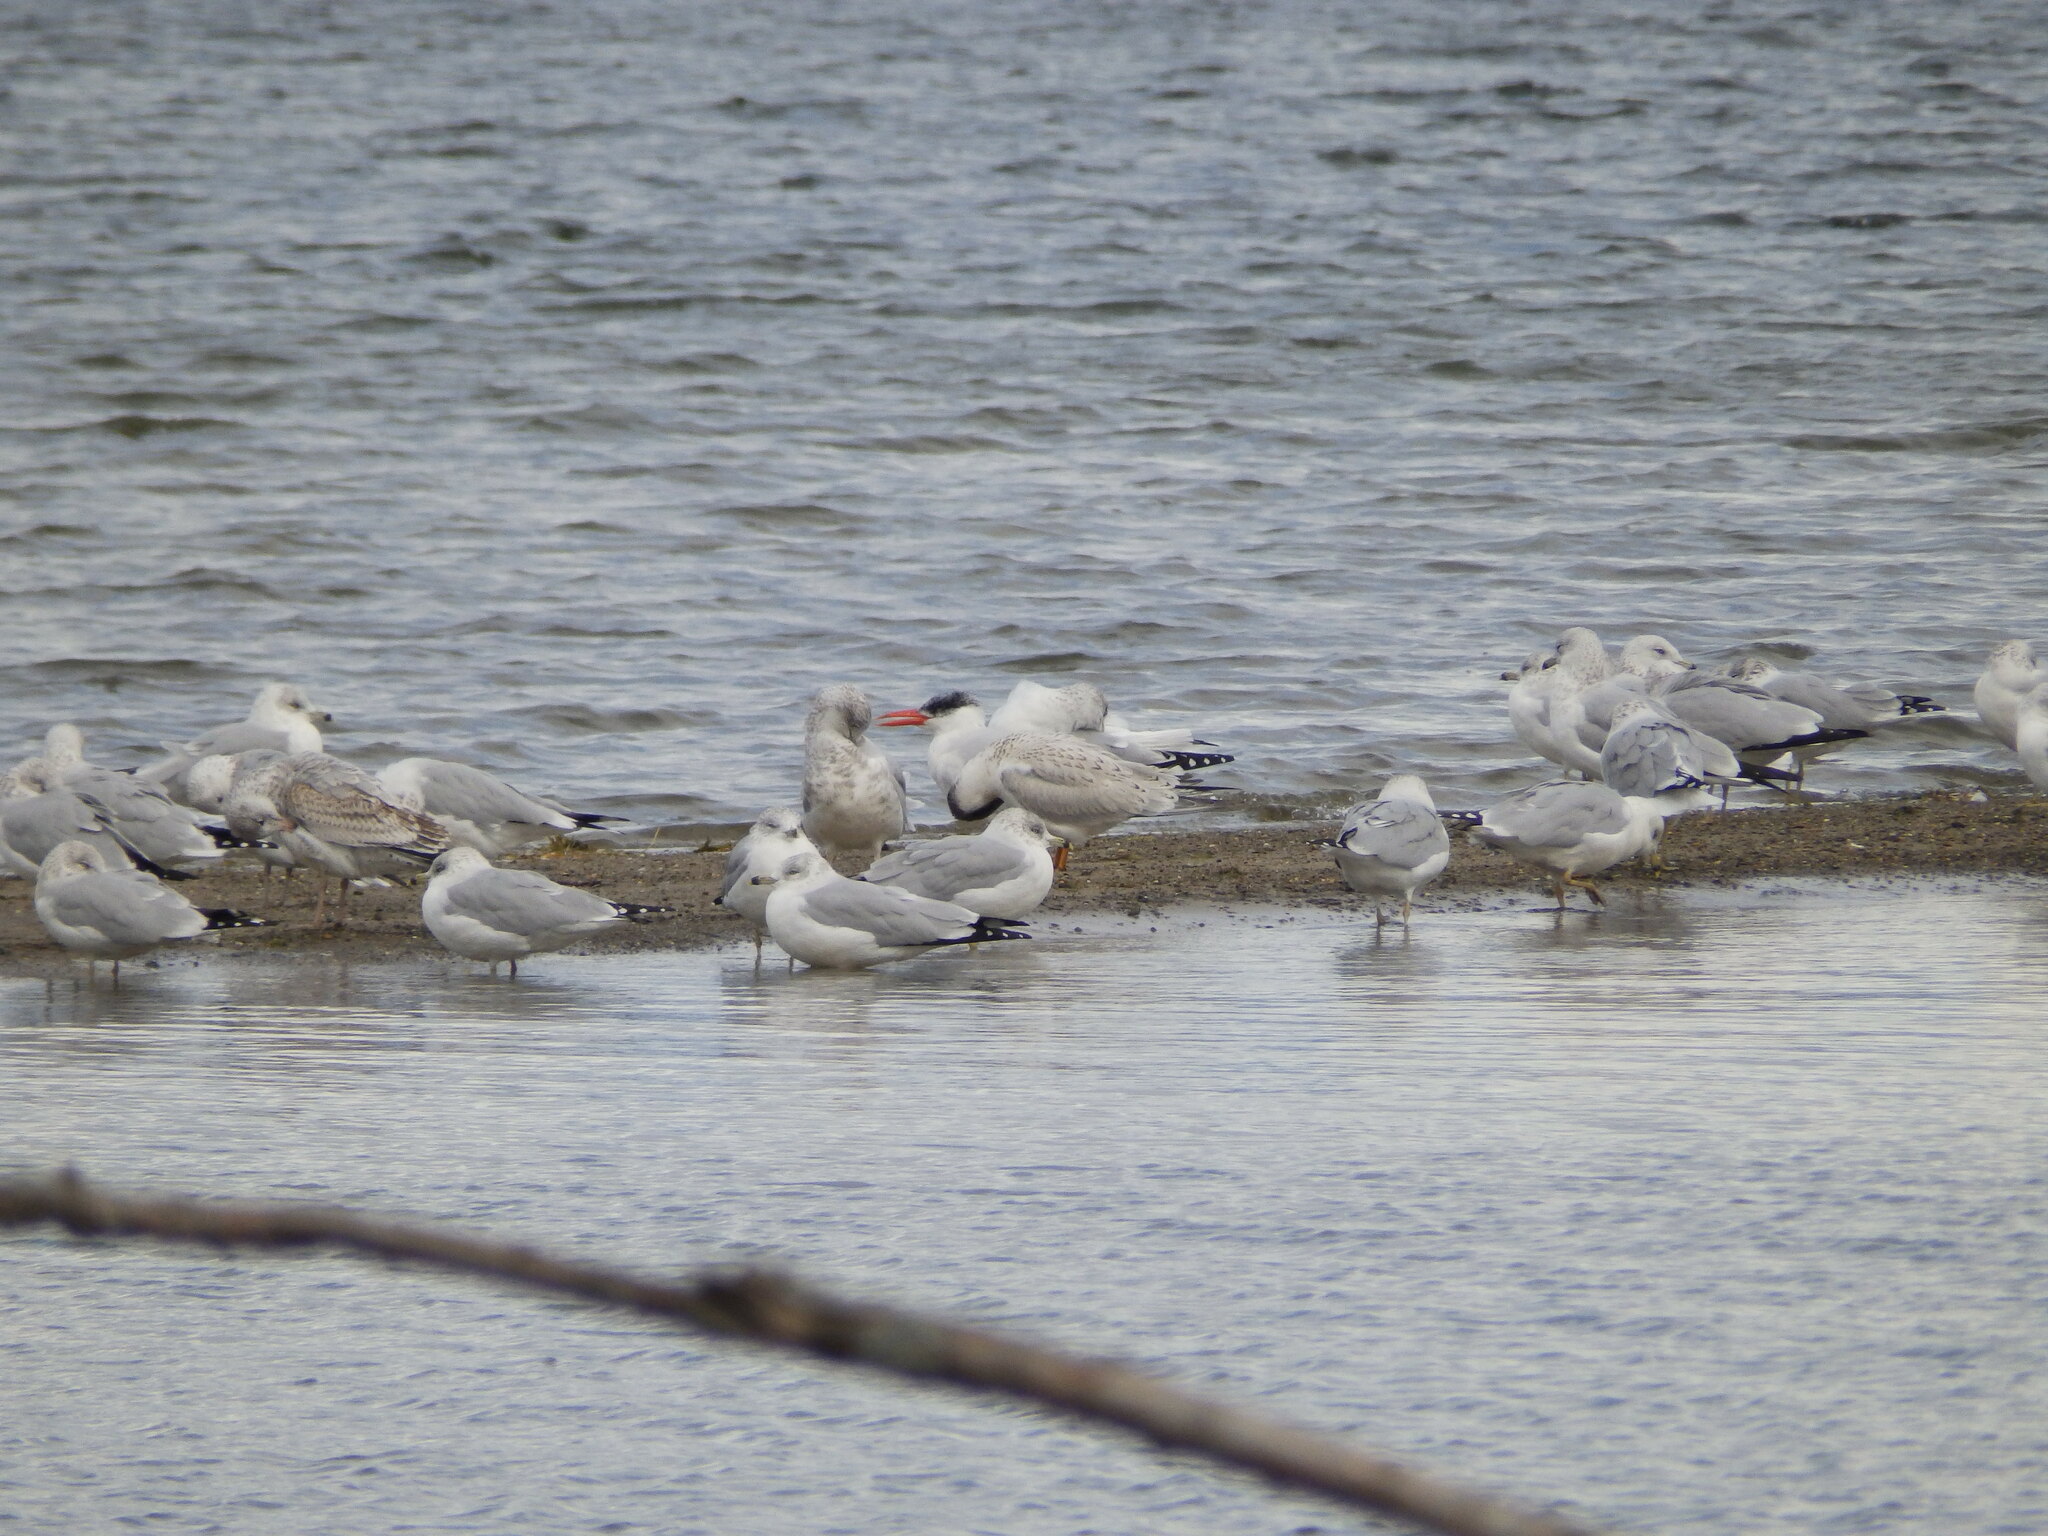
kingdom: Animalia
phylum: Chordata
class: Aves
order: Charadriiformes
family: Laridae
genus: Hydroprogne
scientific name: Hydroprogne caspia
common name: Caspian tern
